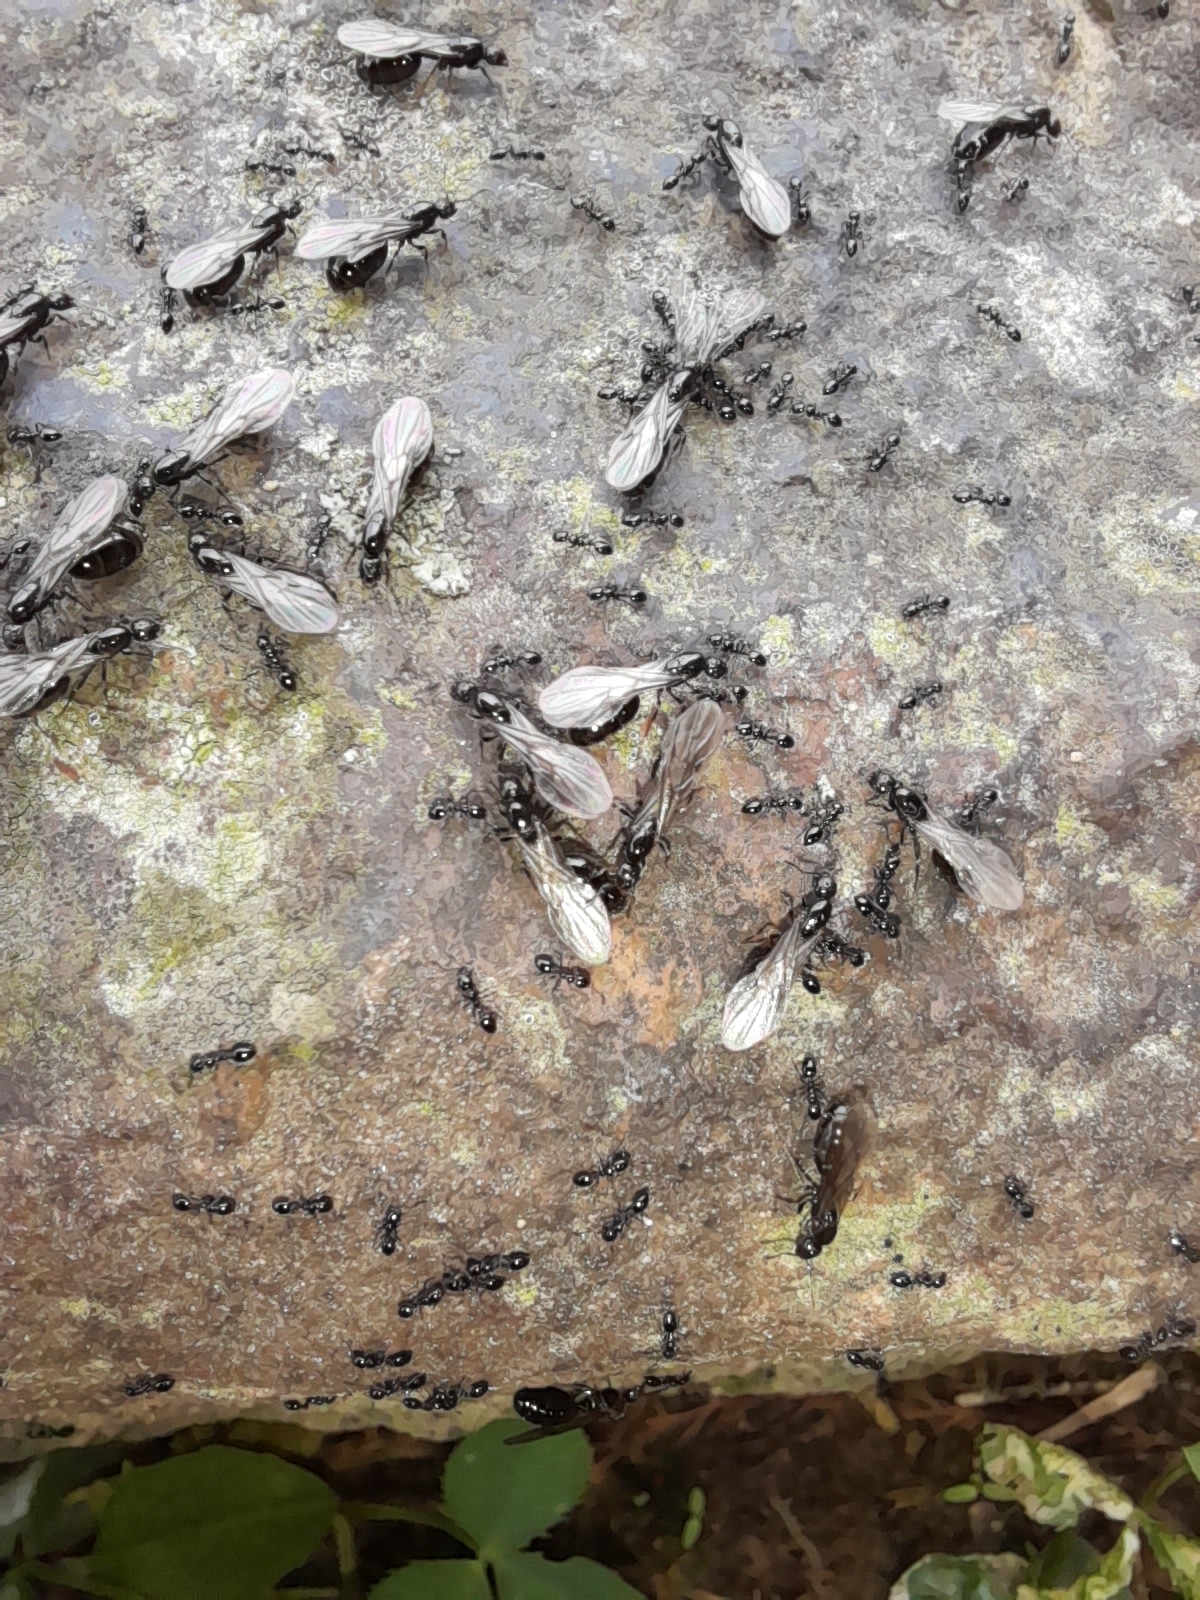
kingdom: Animalia
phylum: Arthropoda
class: Insecta
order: Hymenoptera
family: Formicidae
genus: Monomorium
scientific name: Monomorium minimum
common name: Little black ant
